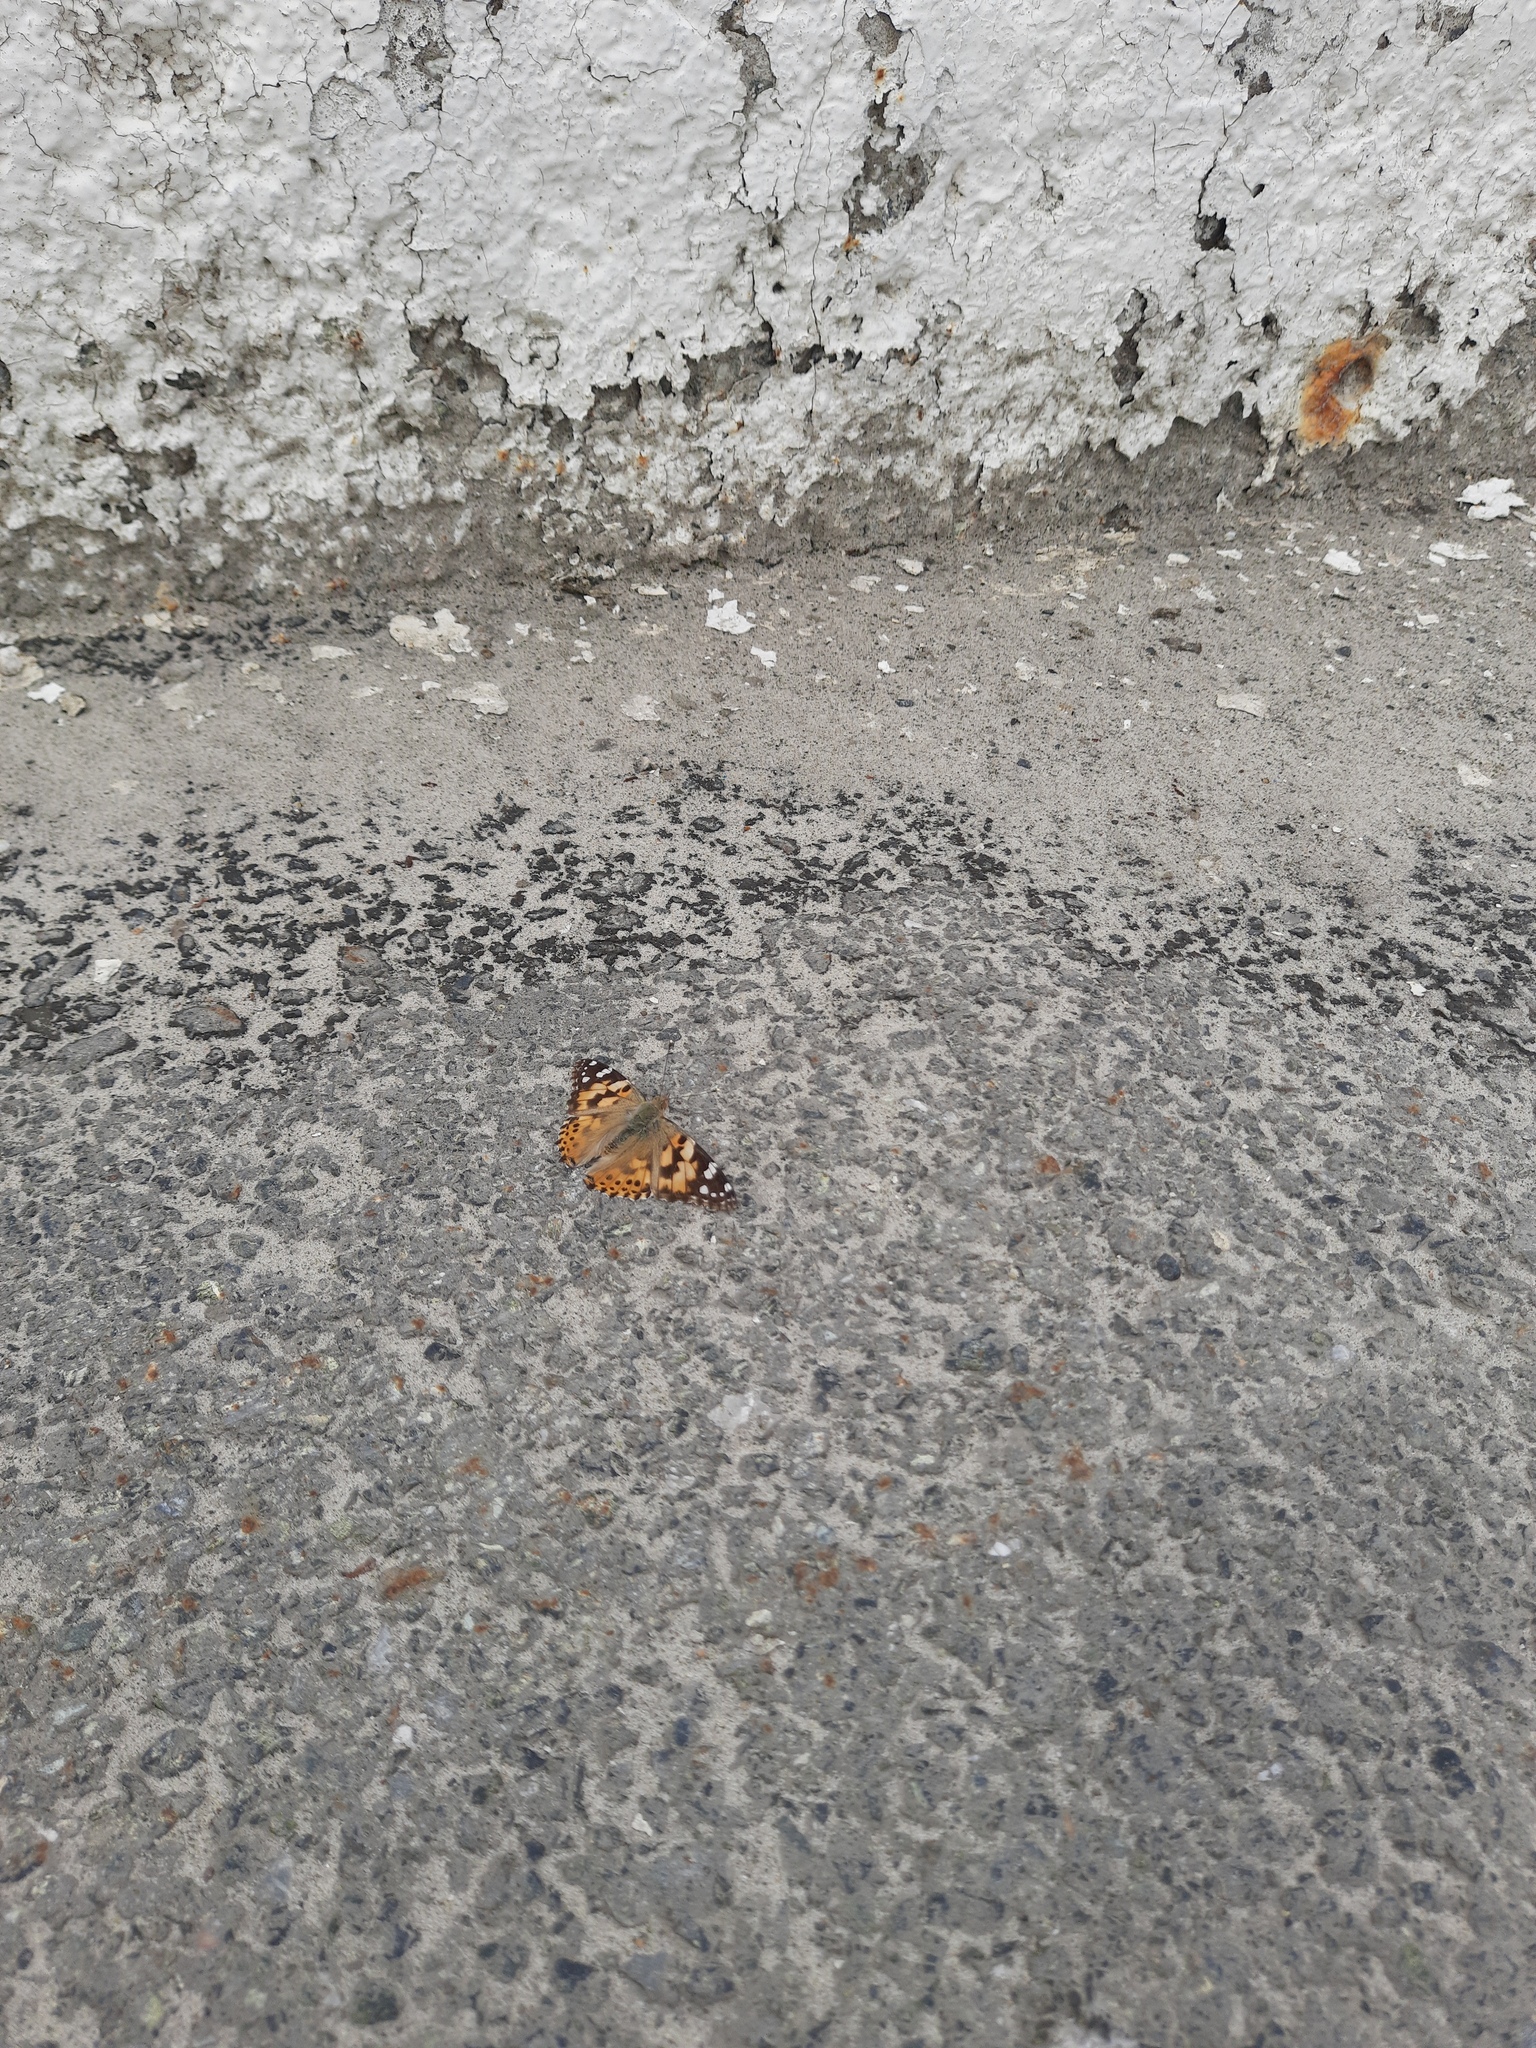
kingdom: Animalia
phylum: Arthropoda
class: Insecta
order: Lepidoptera
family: Nymphalidae
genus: Vanessa
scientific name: Vanessa cardui
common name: Painted lady
